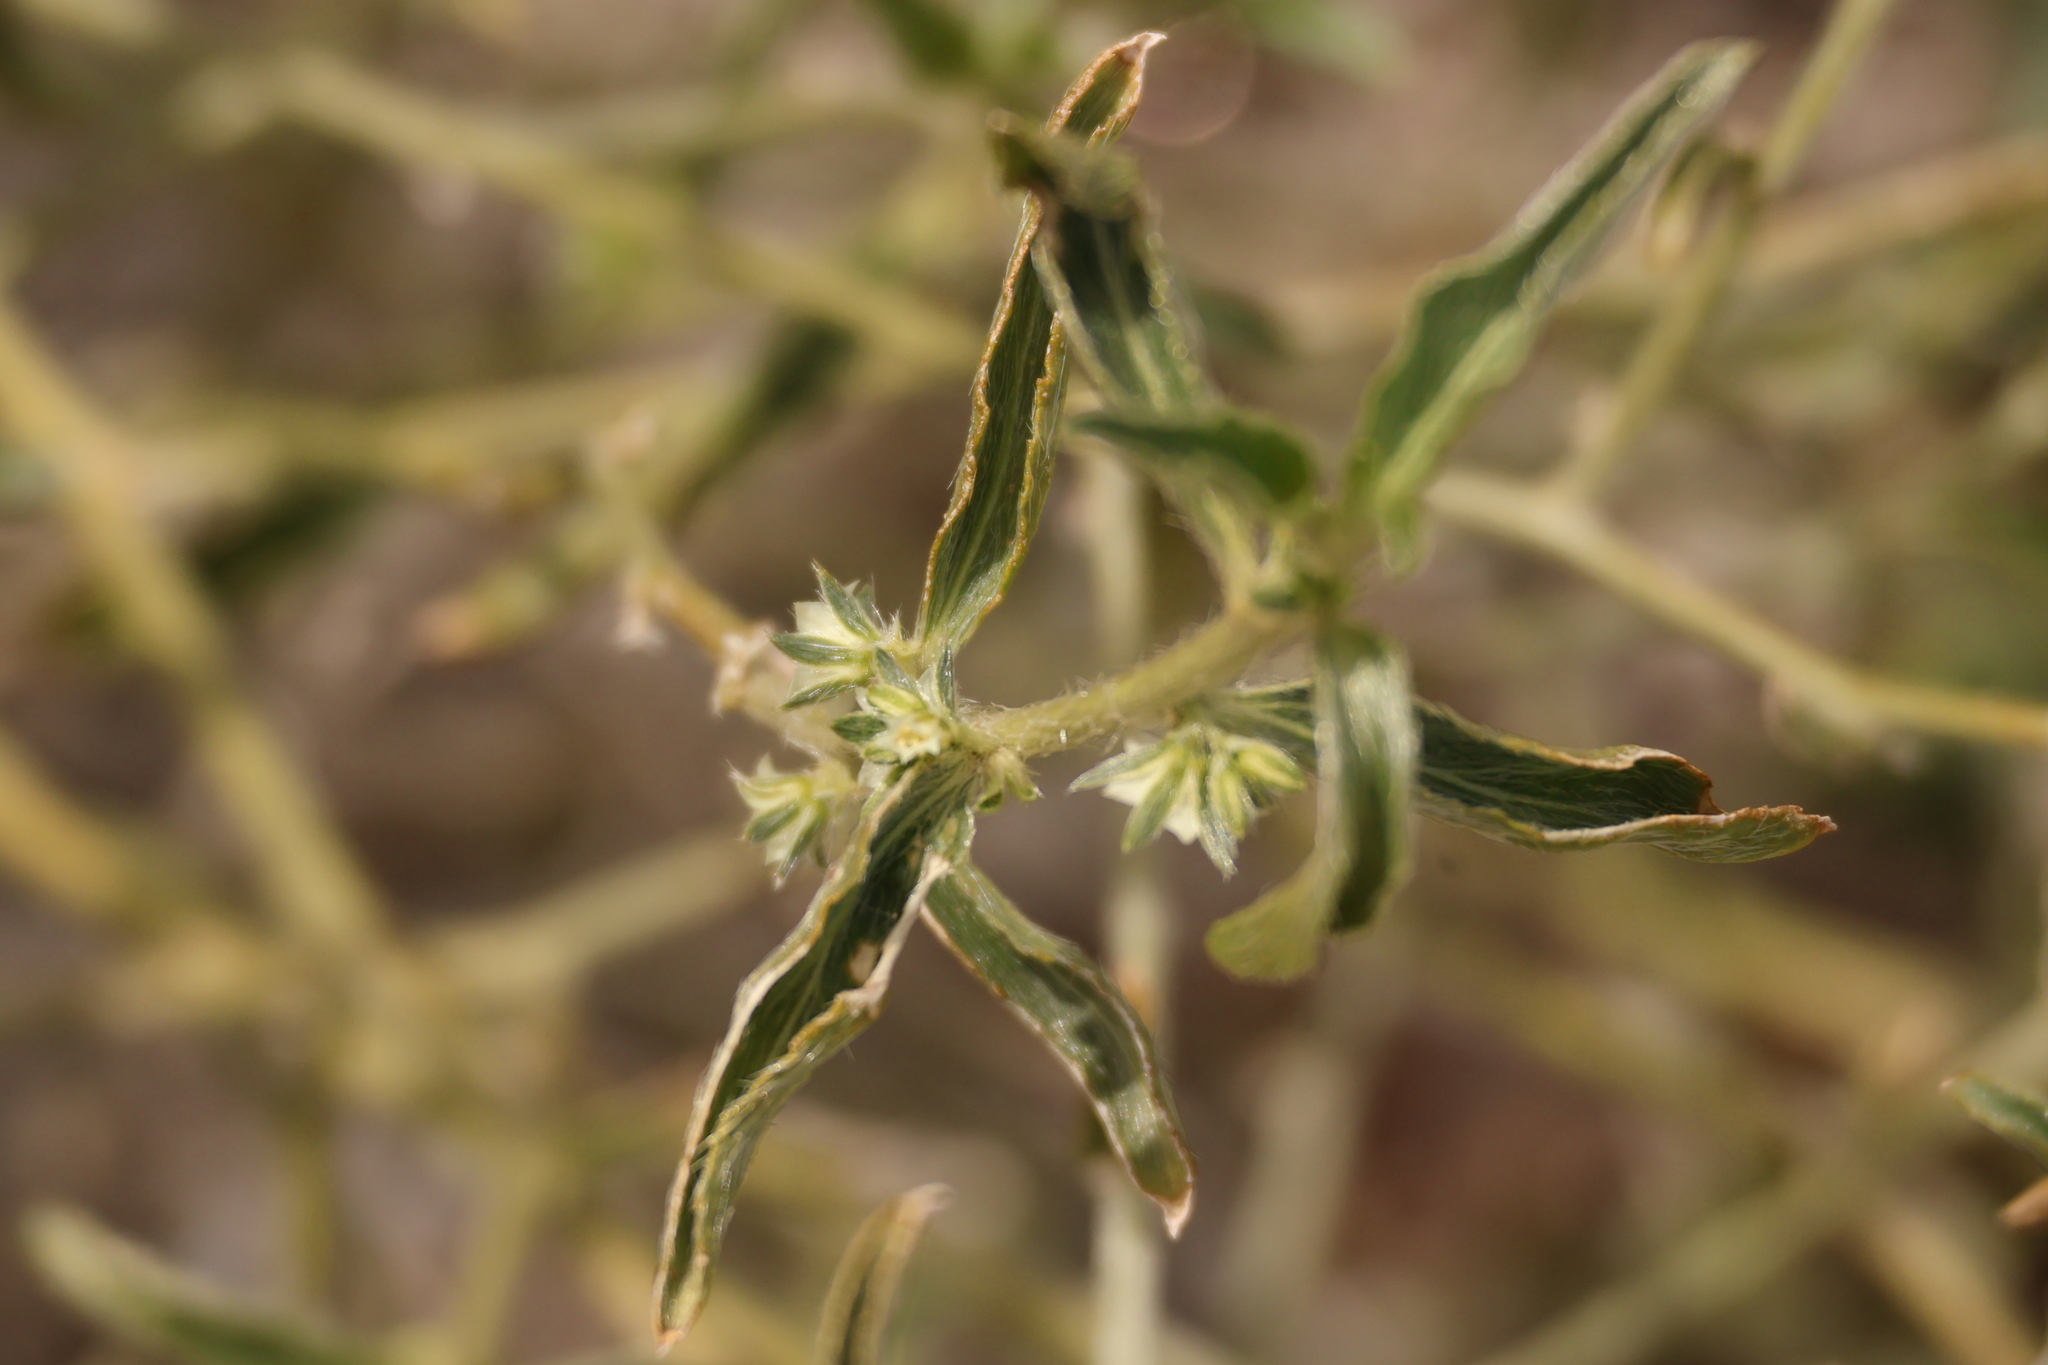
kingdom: Plantae
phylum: Tracheophyta
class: Magnoliopsida
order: Malpighiales
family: Euphorbiaceae
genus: Ditaxis
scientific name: Ditaxis serrata
